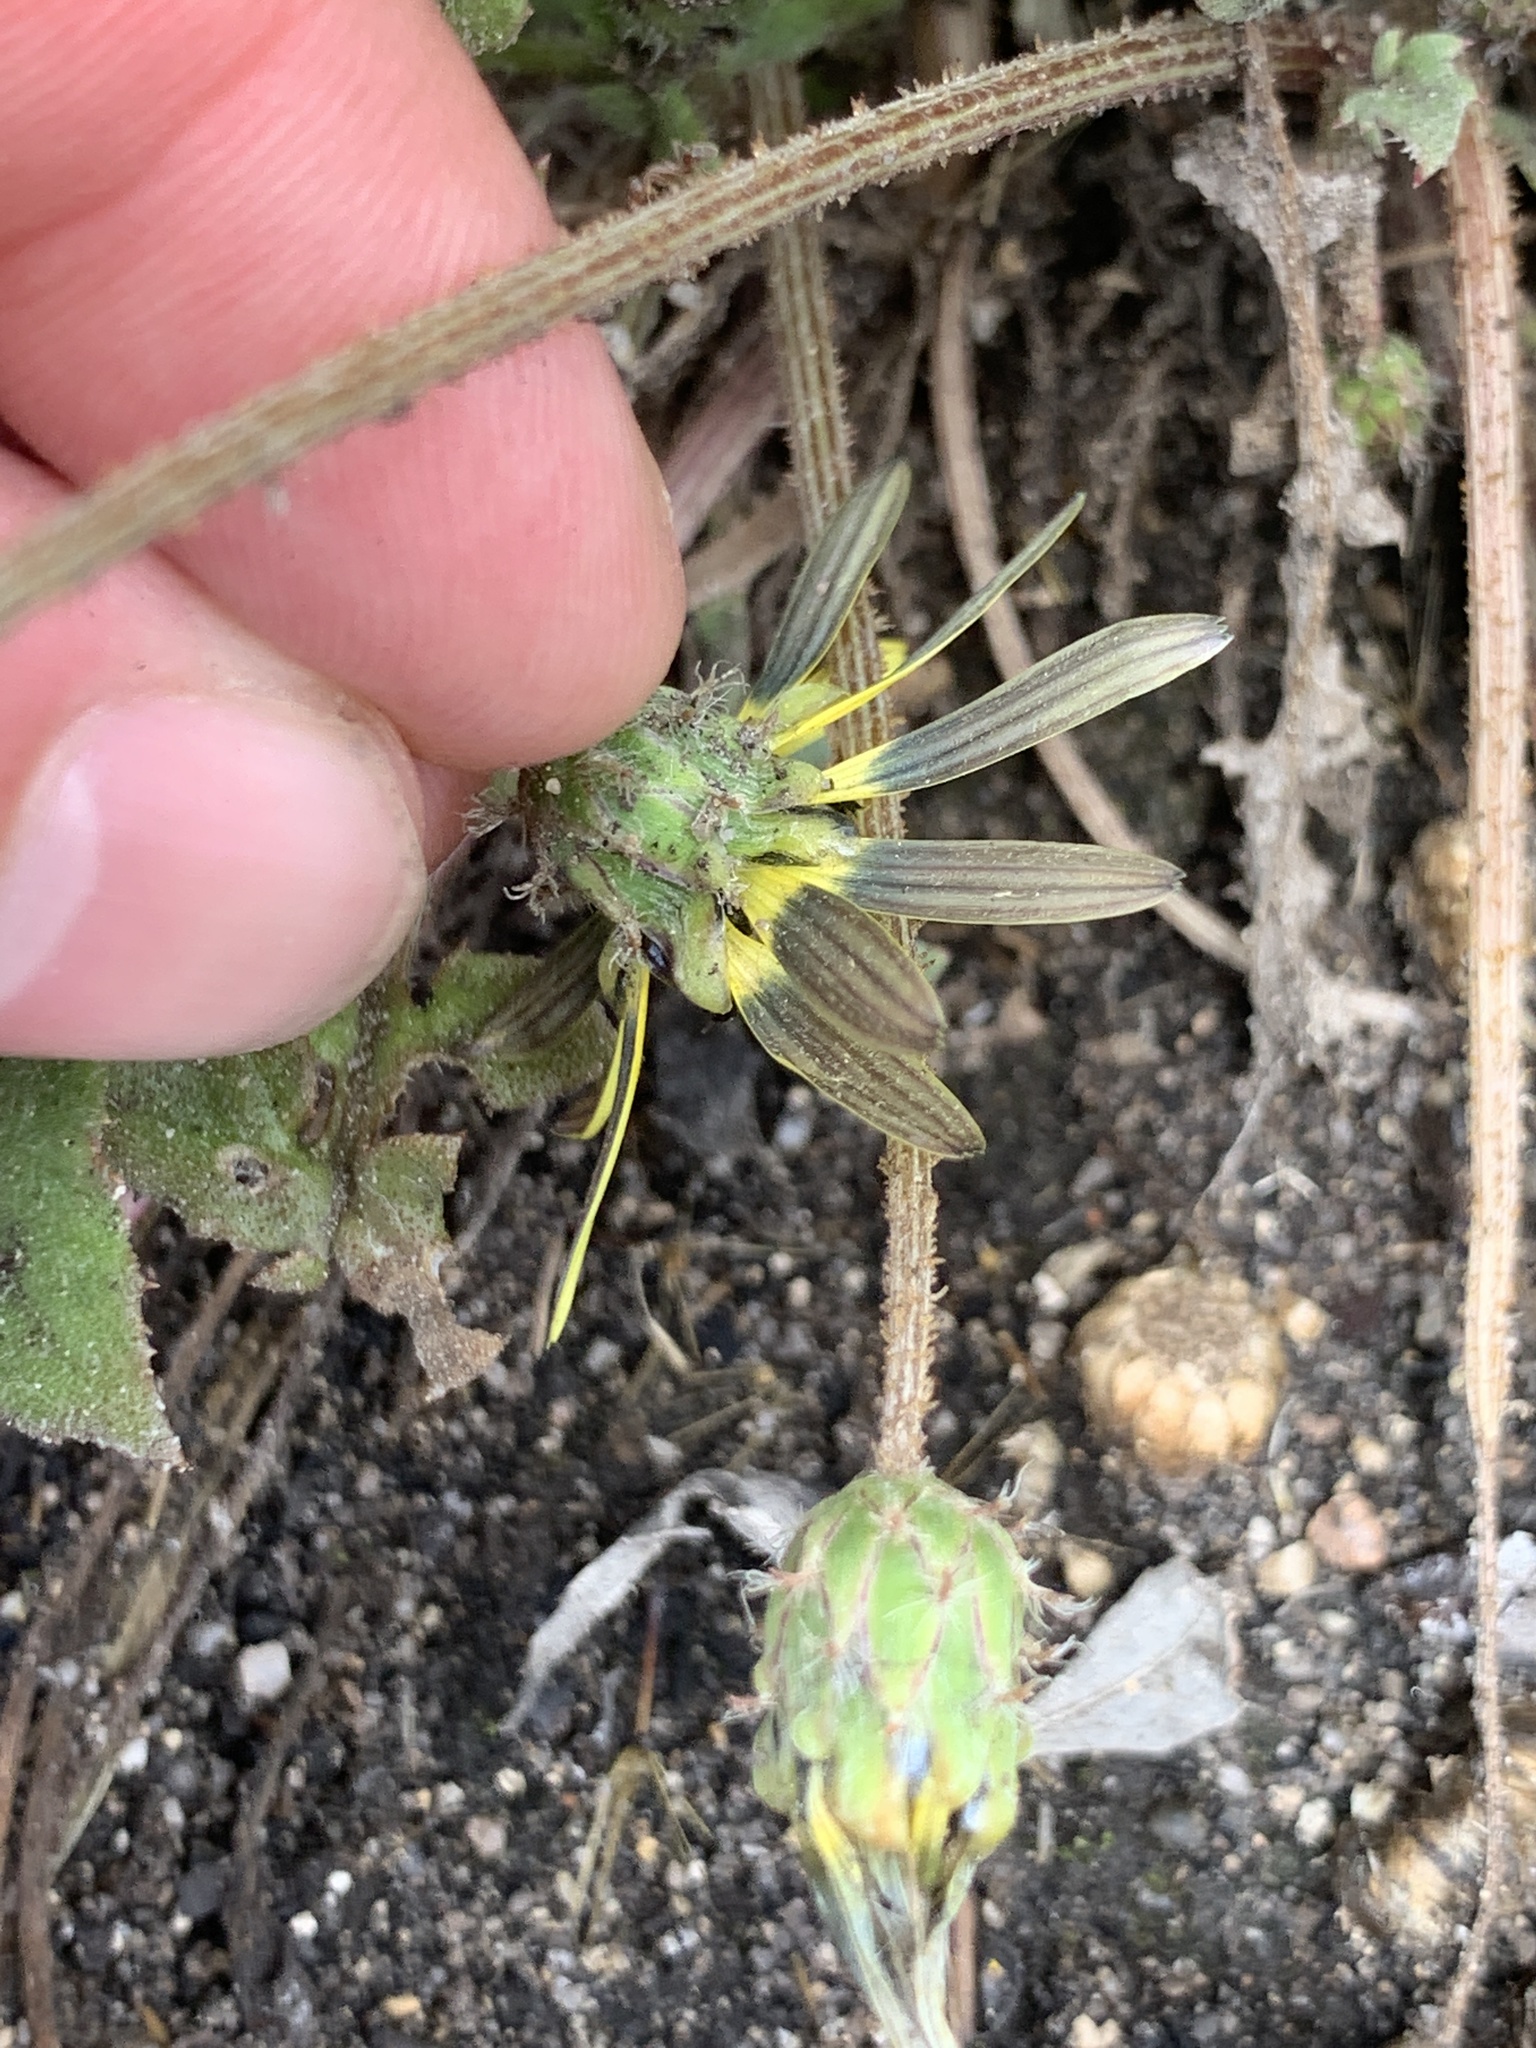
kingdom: Plantae
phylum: Tracheophyta
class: Magnoliopsida
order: Asterales
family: Asteraceae
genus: Arctotheca
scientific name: Arctotheca calendula
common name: Capeweed
